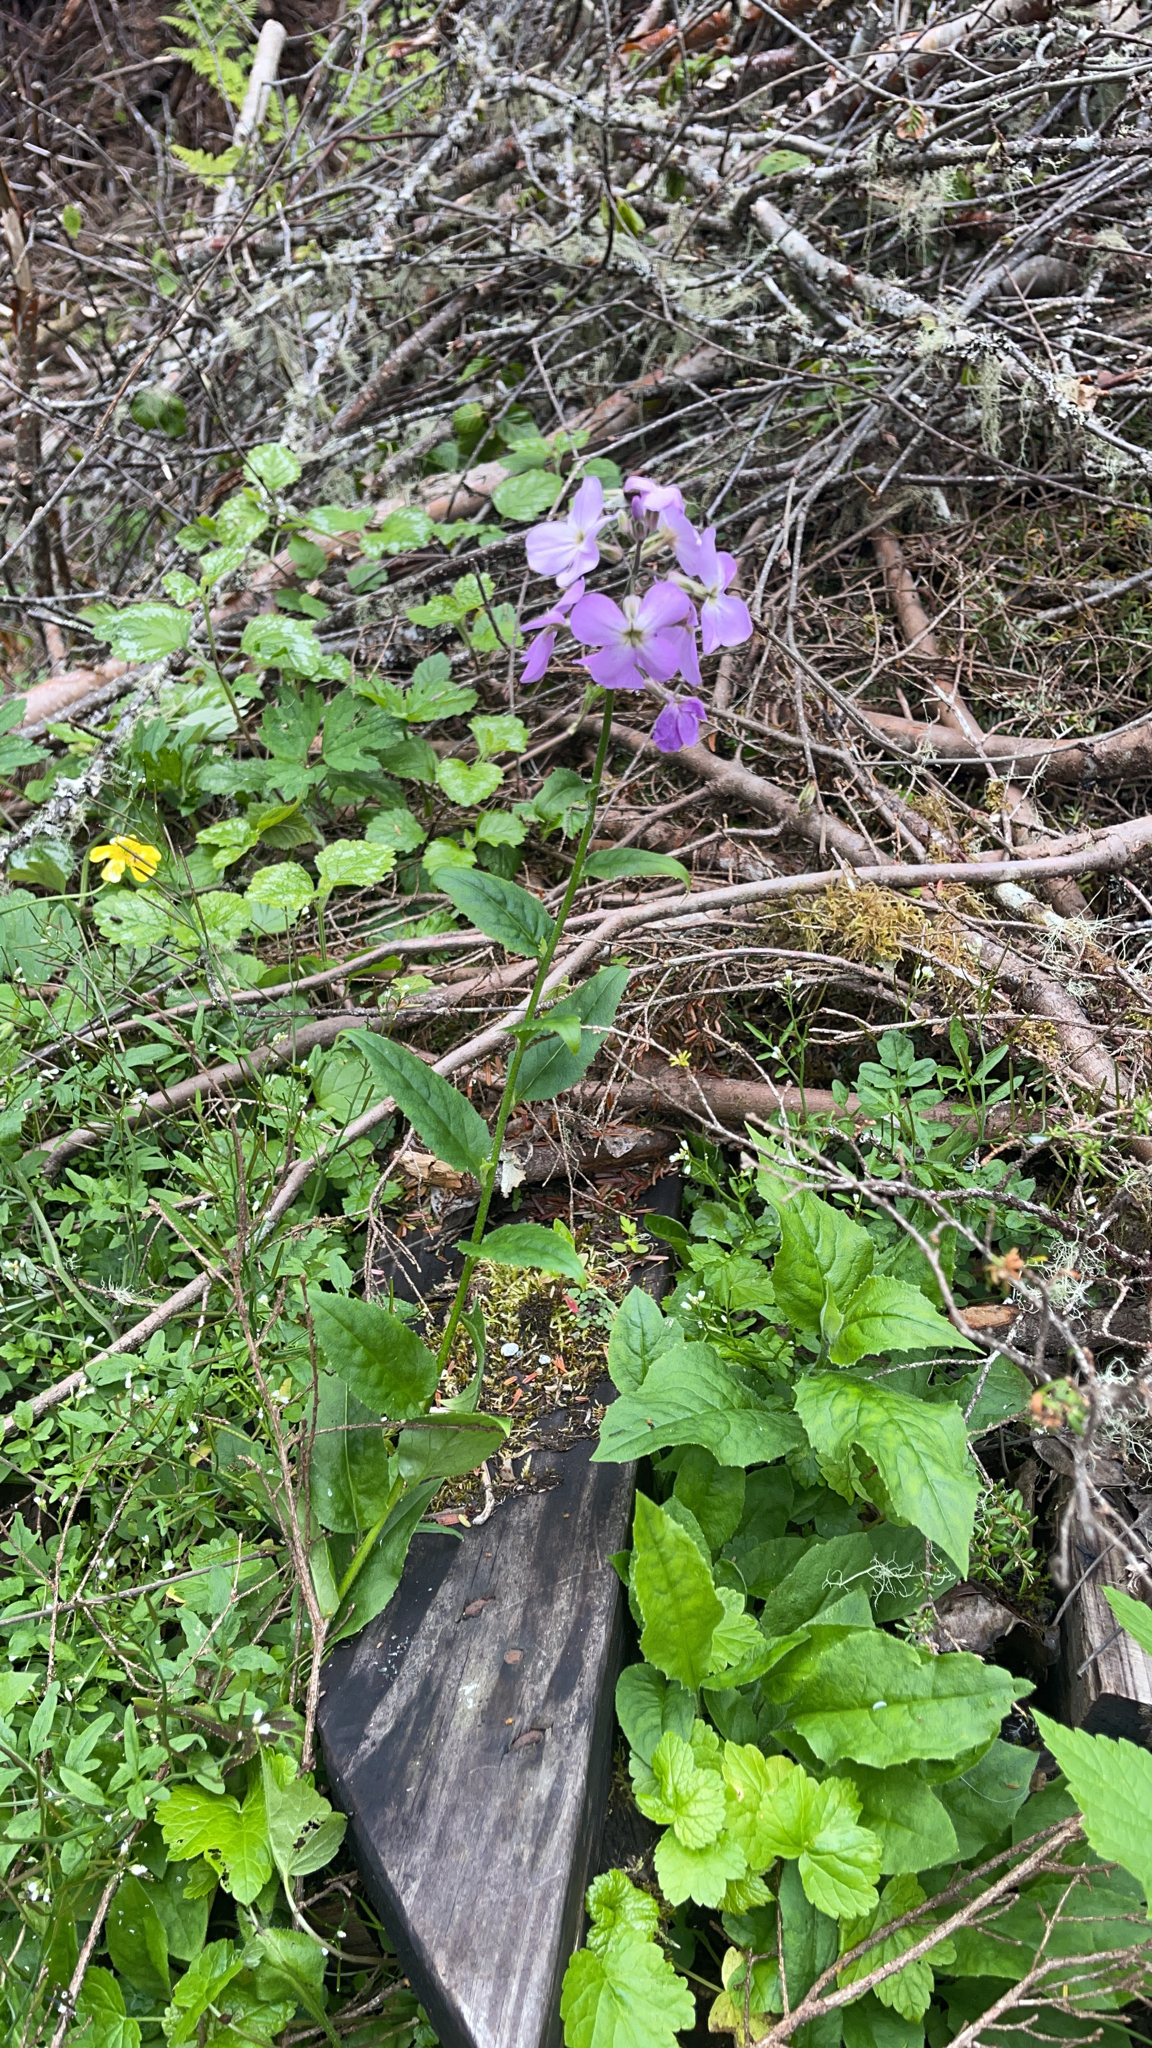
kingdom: Plantae
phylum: Tracheophyta
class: Magnoliopsida
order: Brassicales
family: Brassicaceae
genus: Hesperis
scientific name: Hesperis matronalis
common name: Dame's-violet
